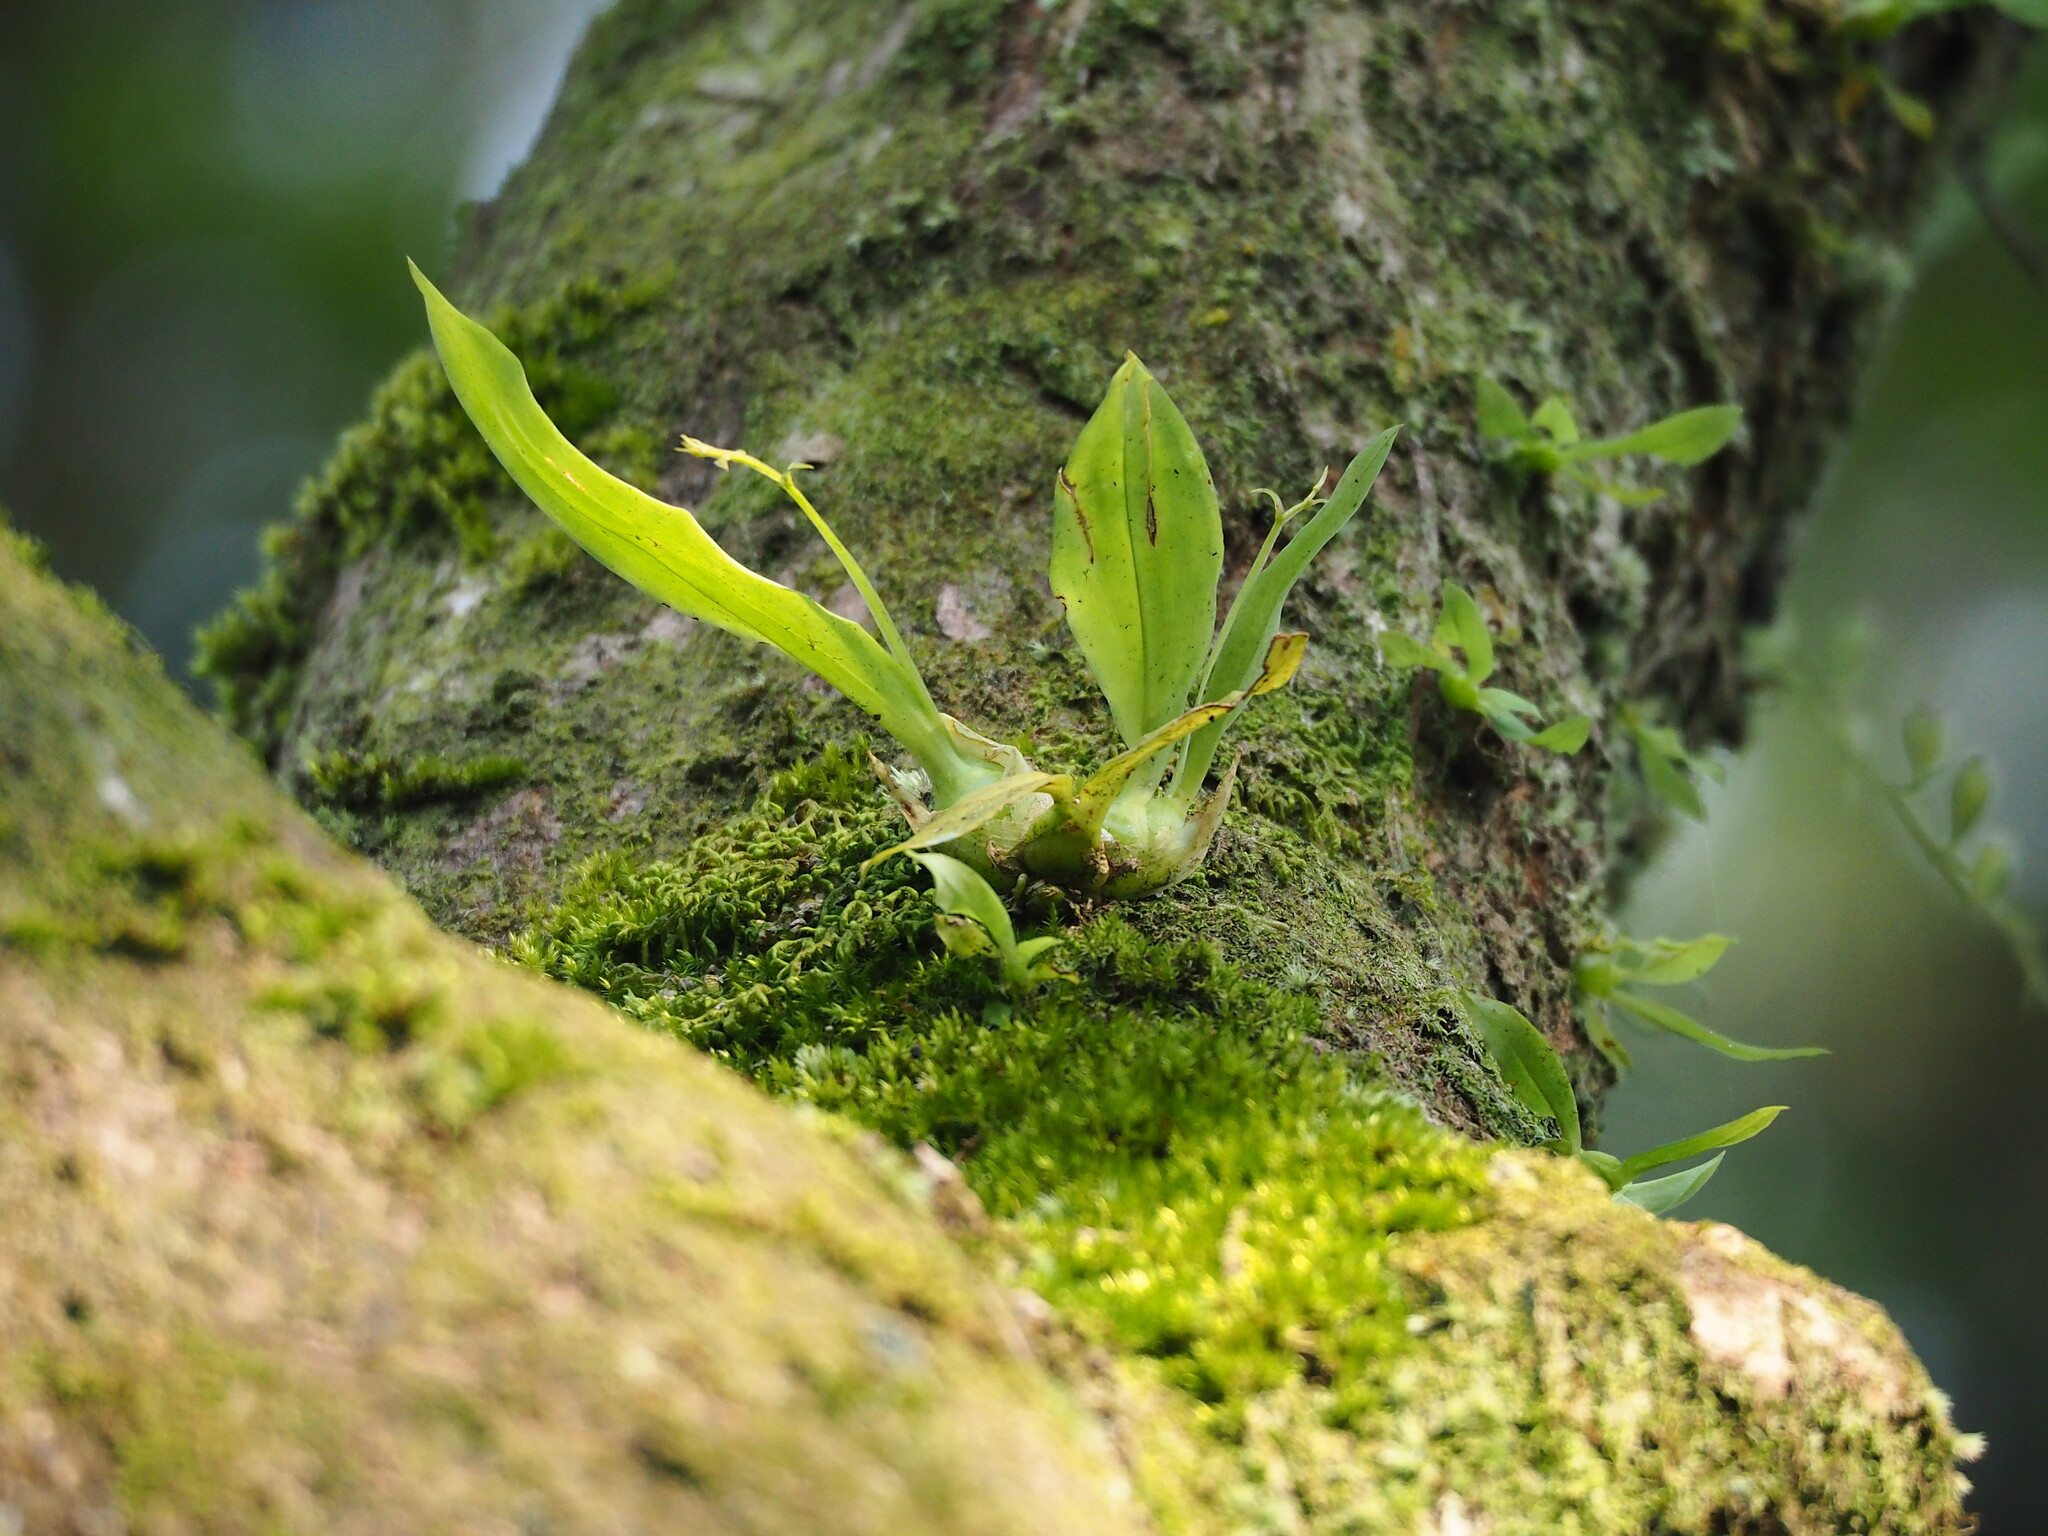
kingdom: Plantae
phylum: Tracheophyta
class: Liliopsida
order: Asparagales
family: Orchidaceae
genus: Liparis
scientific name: Liparis bootanensis
